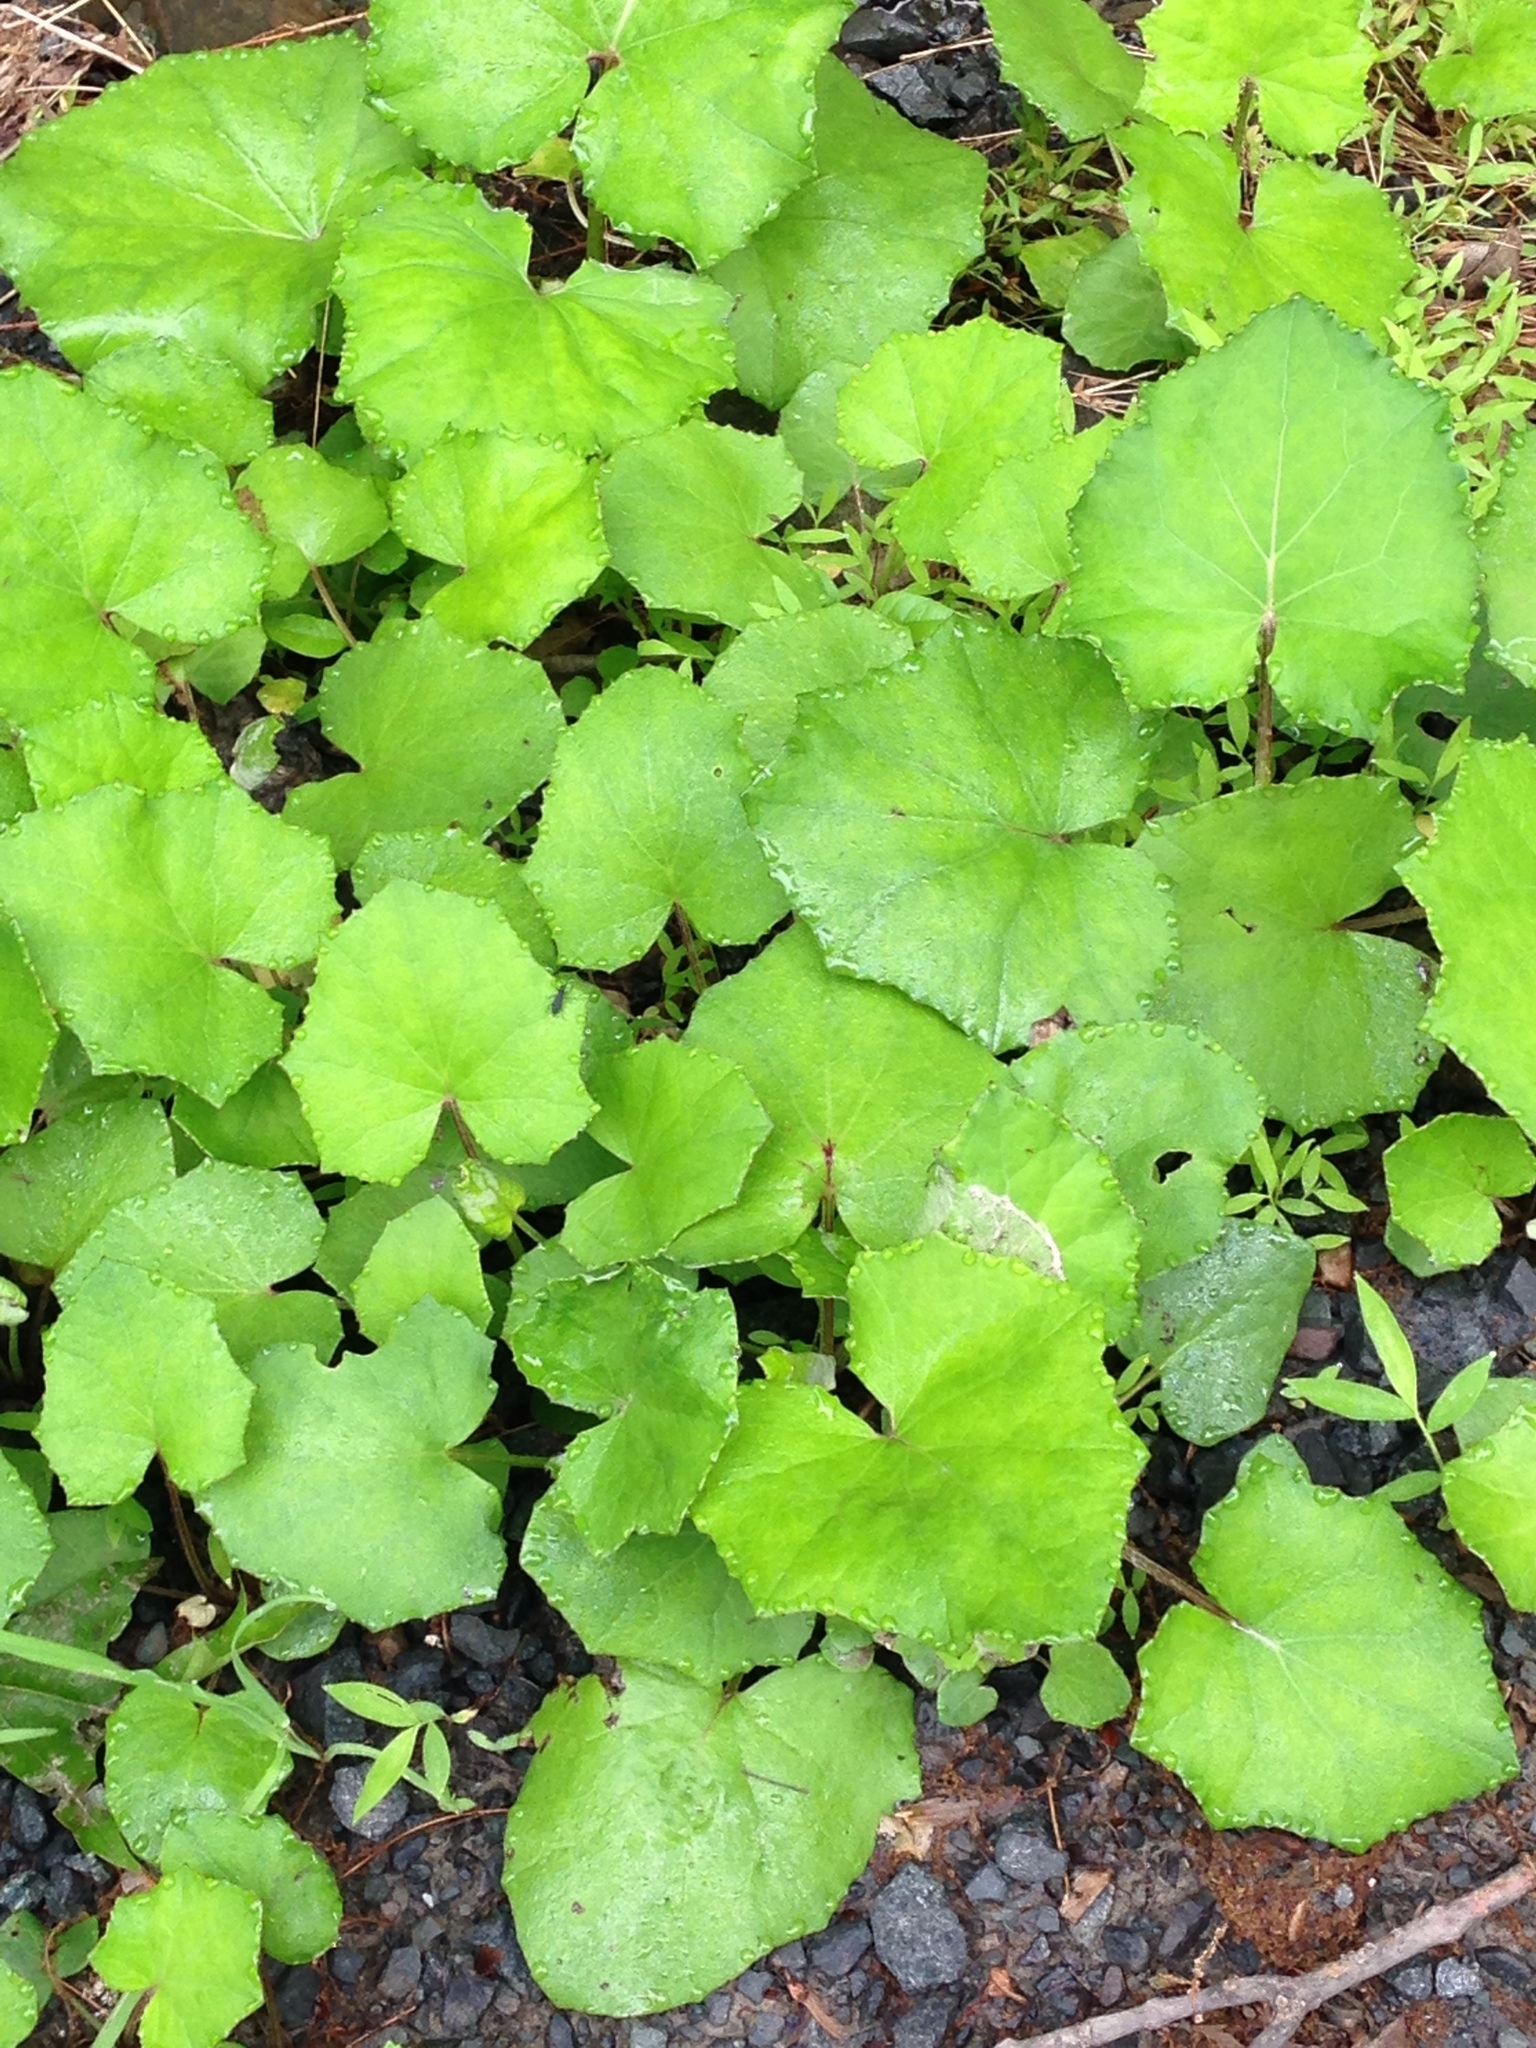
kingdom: Plantae
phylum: Tracheophyta
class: Magnoliopsida
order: Asterales
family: Asteraceae
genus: Tussilago
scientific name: Tussilago farfara
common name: Coltsfoot
